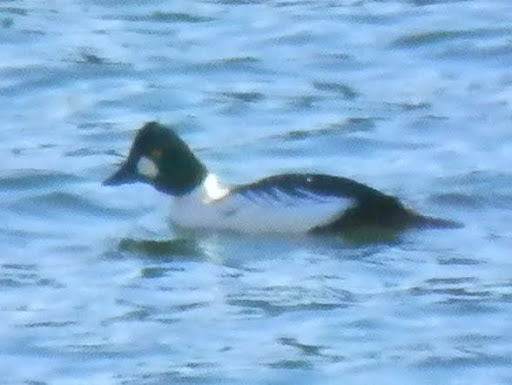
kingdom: Animalia
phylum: Chordata
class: Aves
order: Anseriformes
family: Anatidae
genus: Bucephala
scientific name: Bucephala clangula
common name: Common goldeneye
